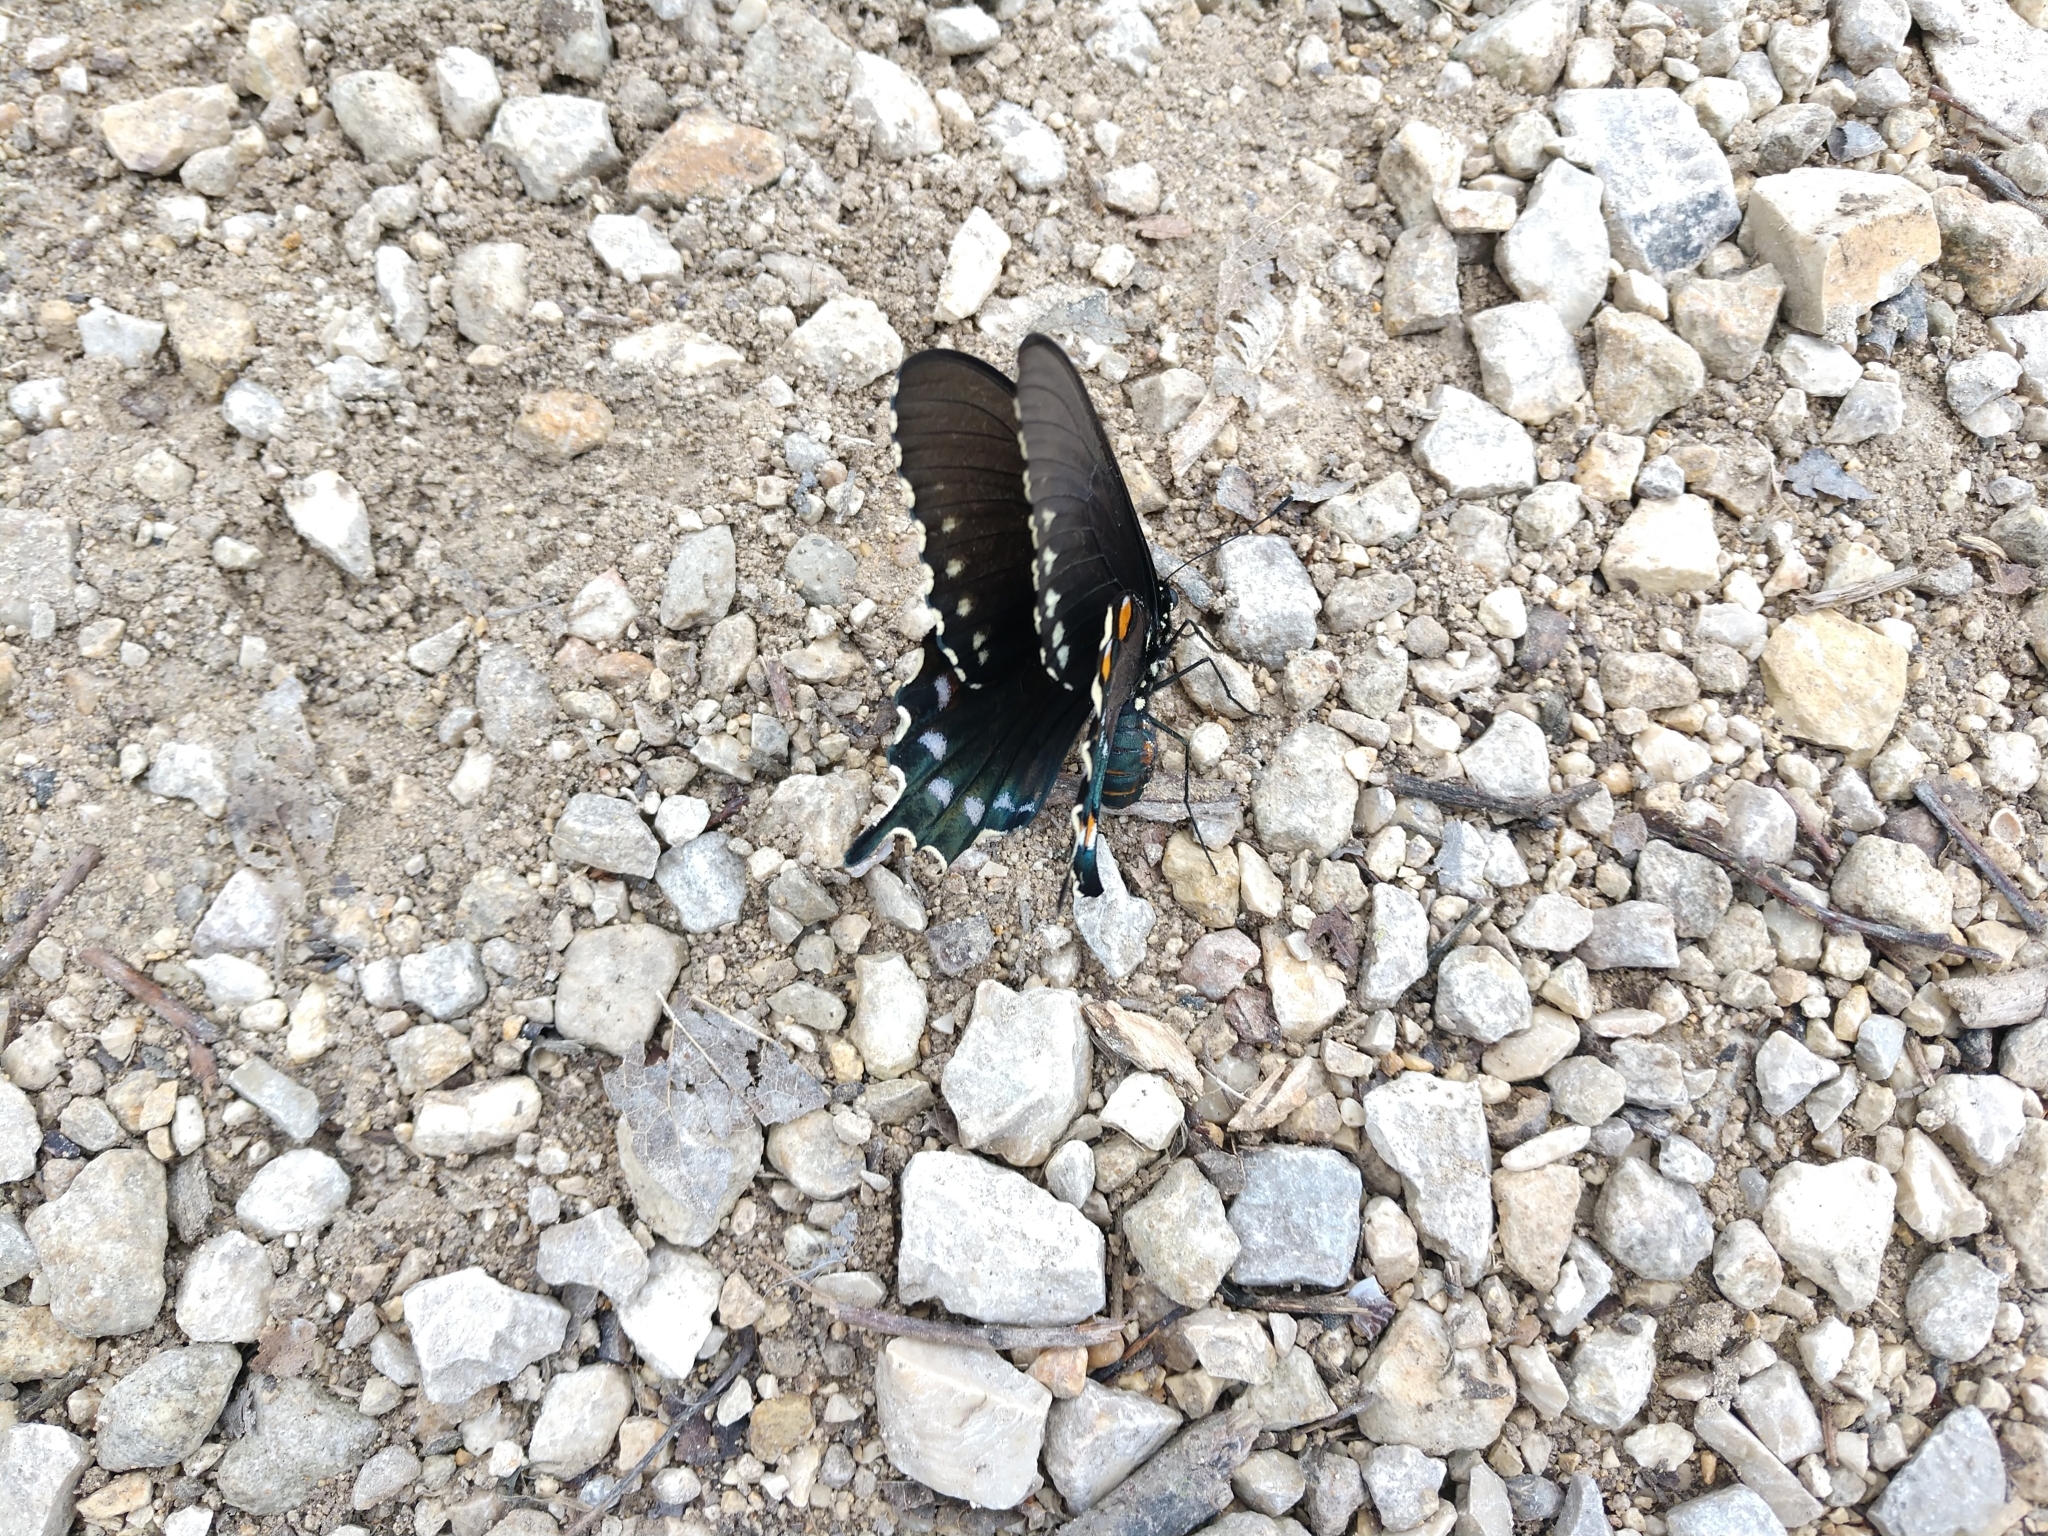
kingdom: Animalia
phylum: Arthropoda
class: Insecta
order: Lepidoptera
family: Papilionidae
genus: Battus
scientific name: Battus philenor
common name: Pipevine swallowtail
